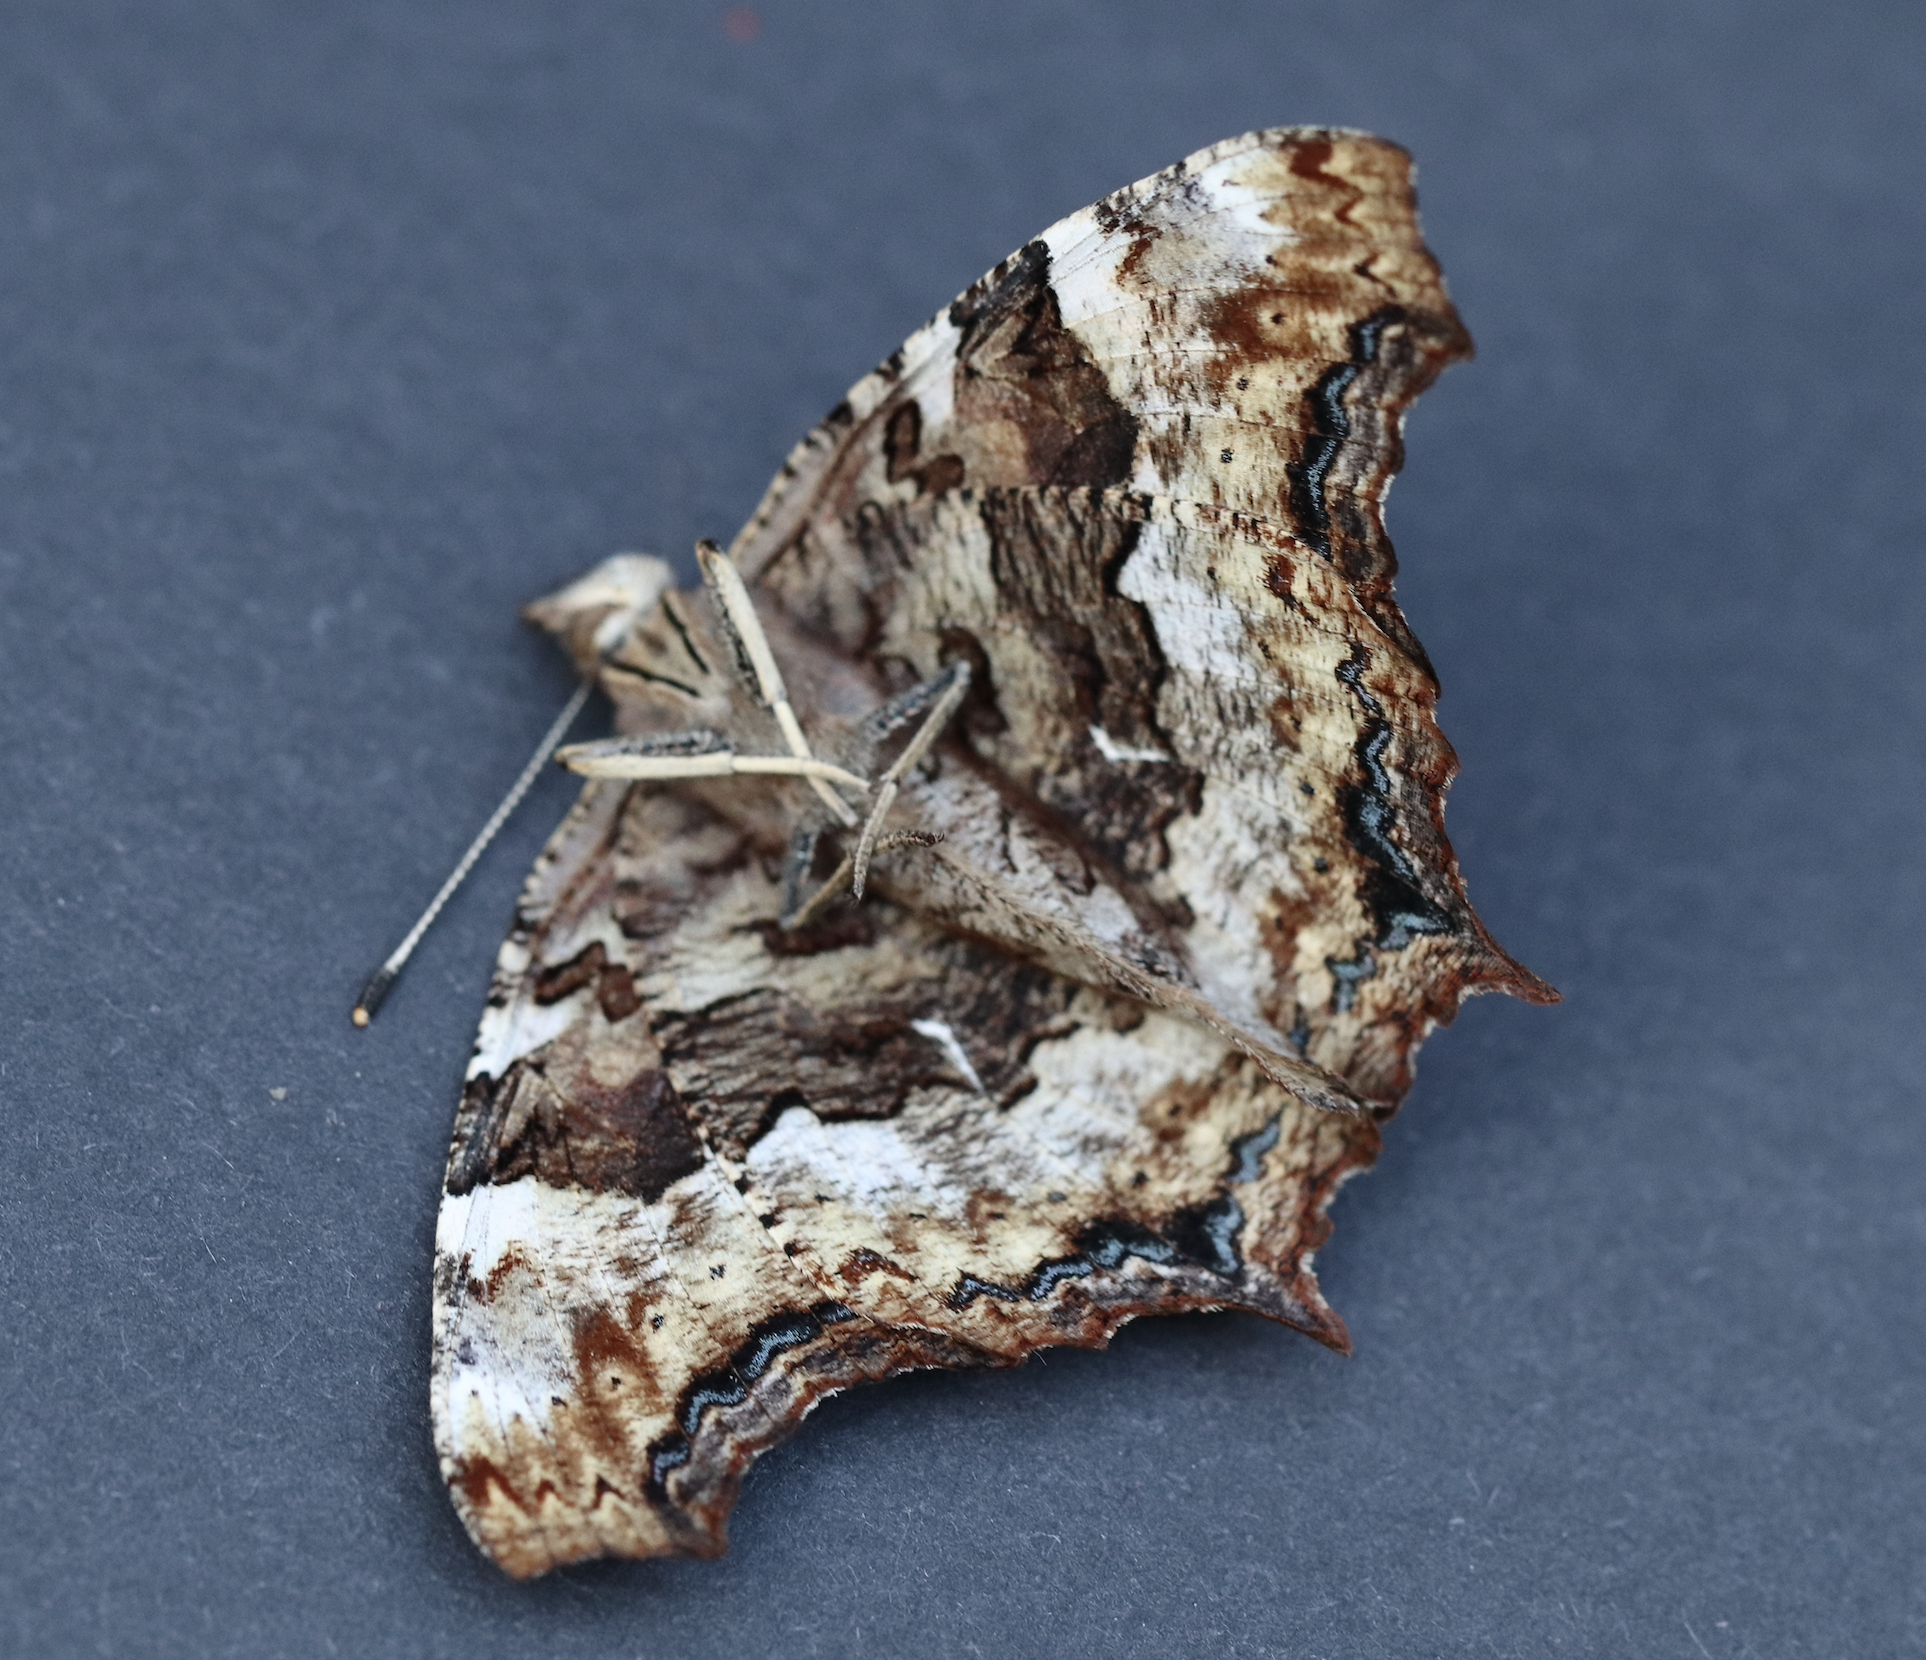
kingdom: Animalia
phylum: Arthropoda
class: Insecta
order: Lepidoptera
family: Nymphalidae
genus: Polygonia
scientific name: Polygonia vaualbum
